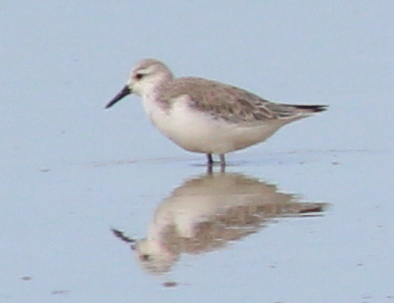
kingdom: Animalia
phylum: Chordata
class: Aves
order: Charadriiformes
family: Scolopacidae
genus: Calidris
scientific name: Calidris alba
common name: Sanderling
